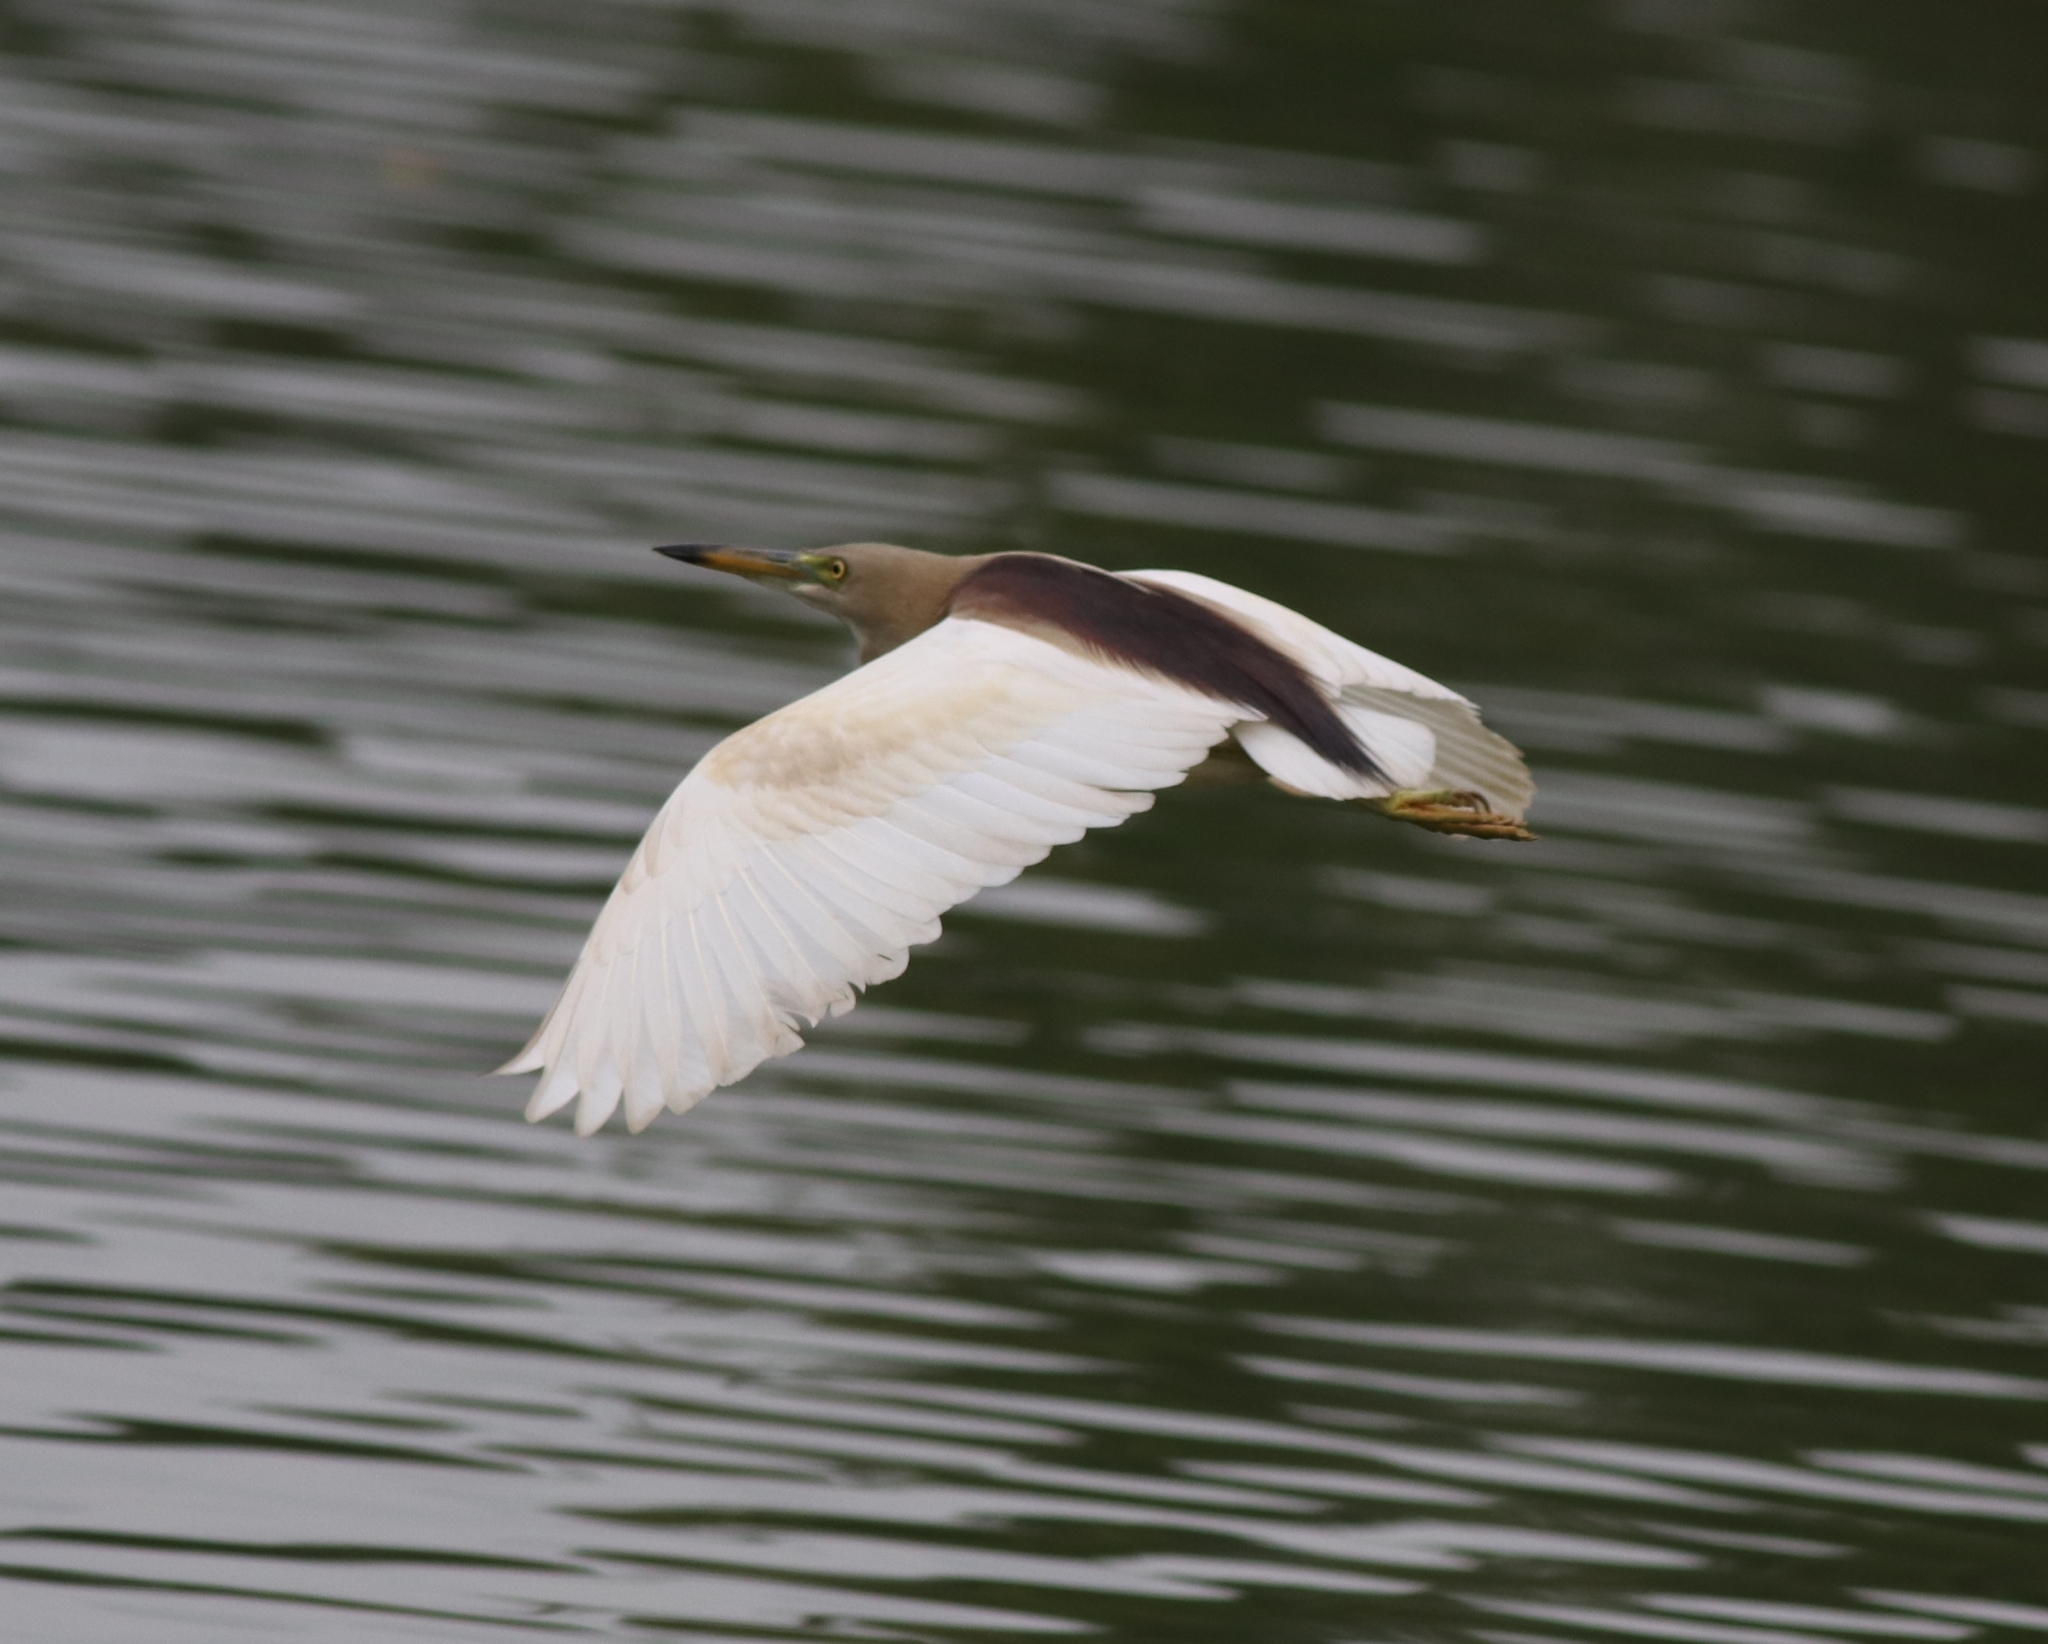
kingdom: Animalia
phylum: Chordata
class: Aves
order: Pelecaniformes
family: Ardeidae
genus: Ardeola
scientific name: Ardeola grayii
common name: Indian pond heron
